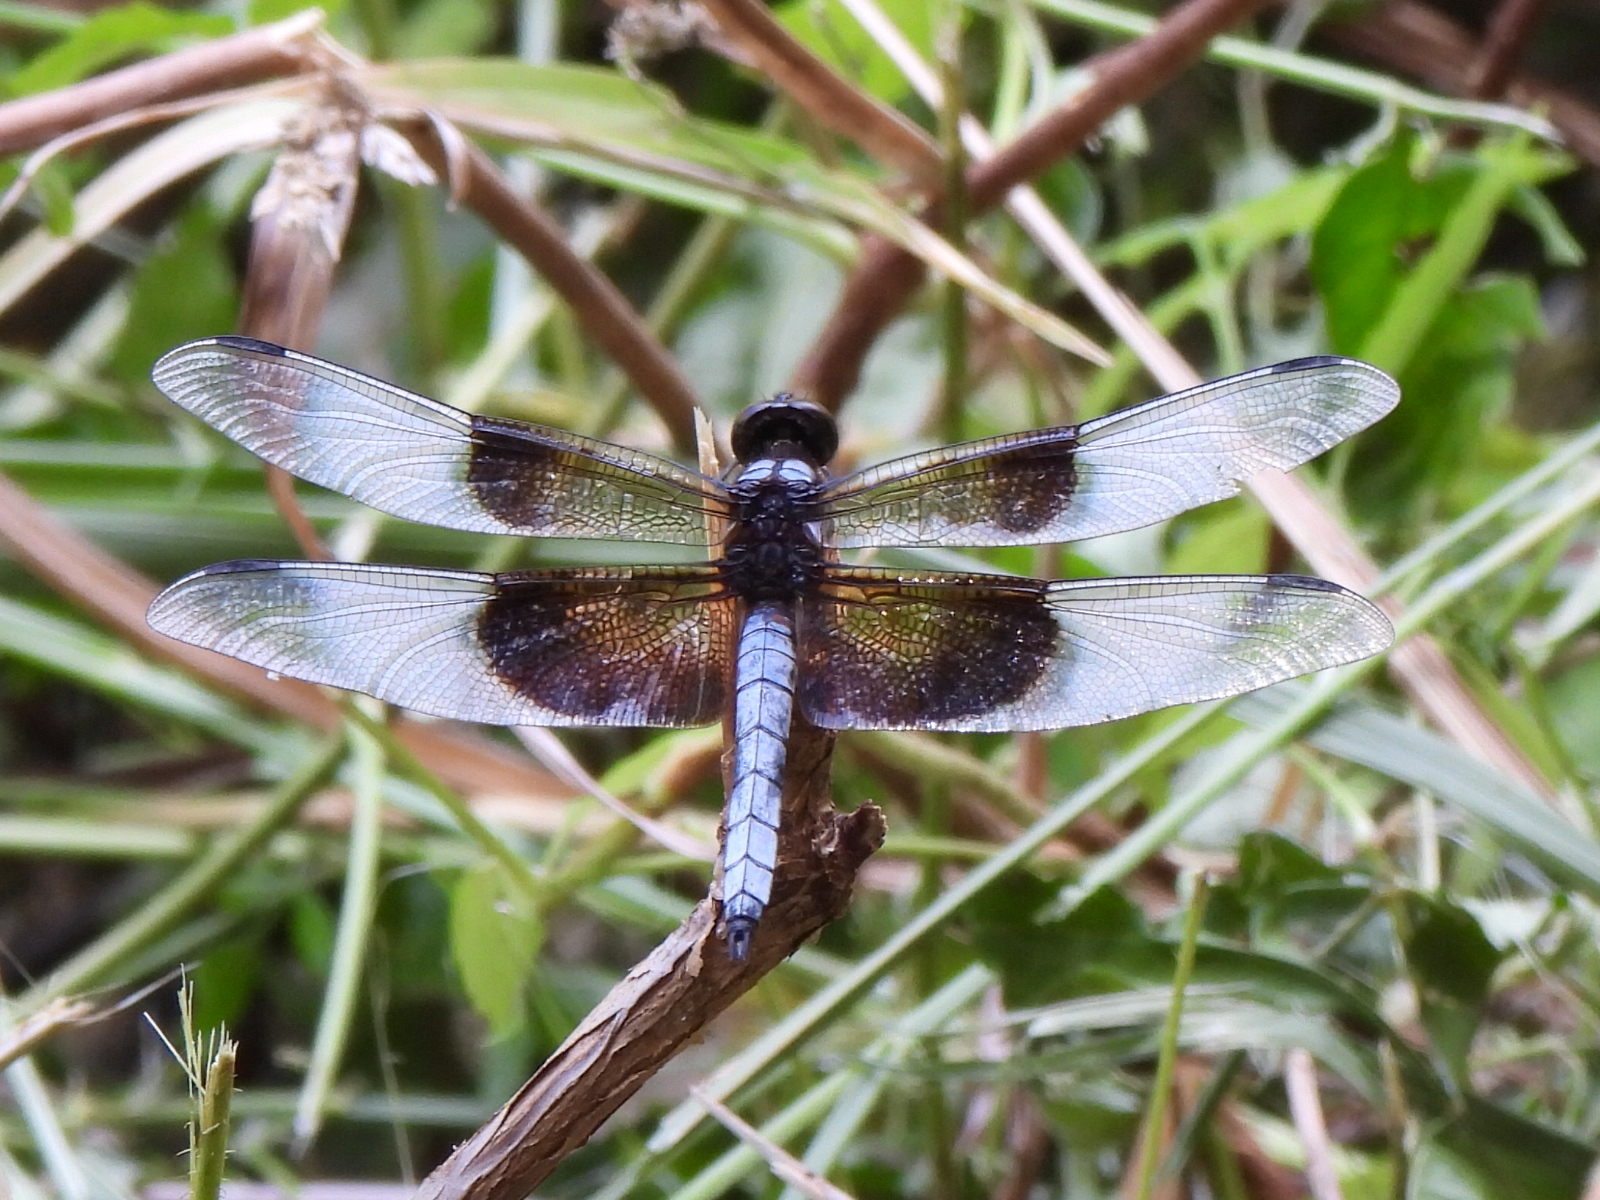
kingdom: Animalia
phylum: Arthropoda
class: Insecta
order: Odonata
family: Libellulidae
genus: Libellula
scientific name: Libellula luctuosa
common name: Widow skimmer
